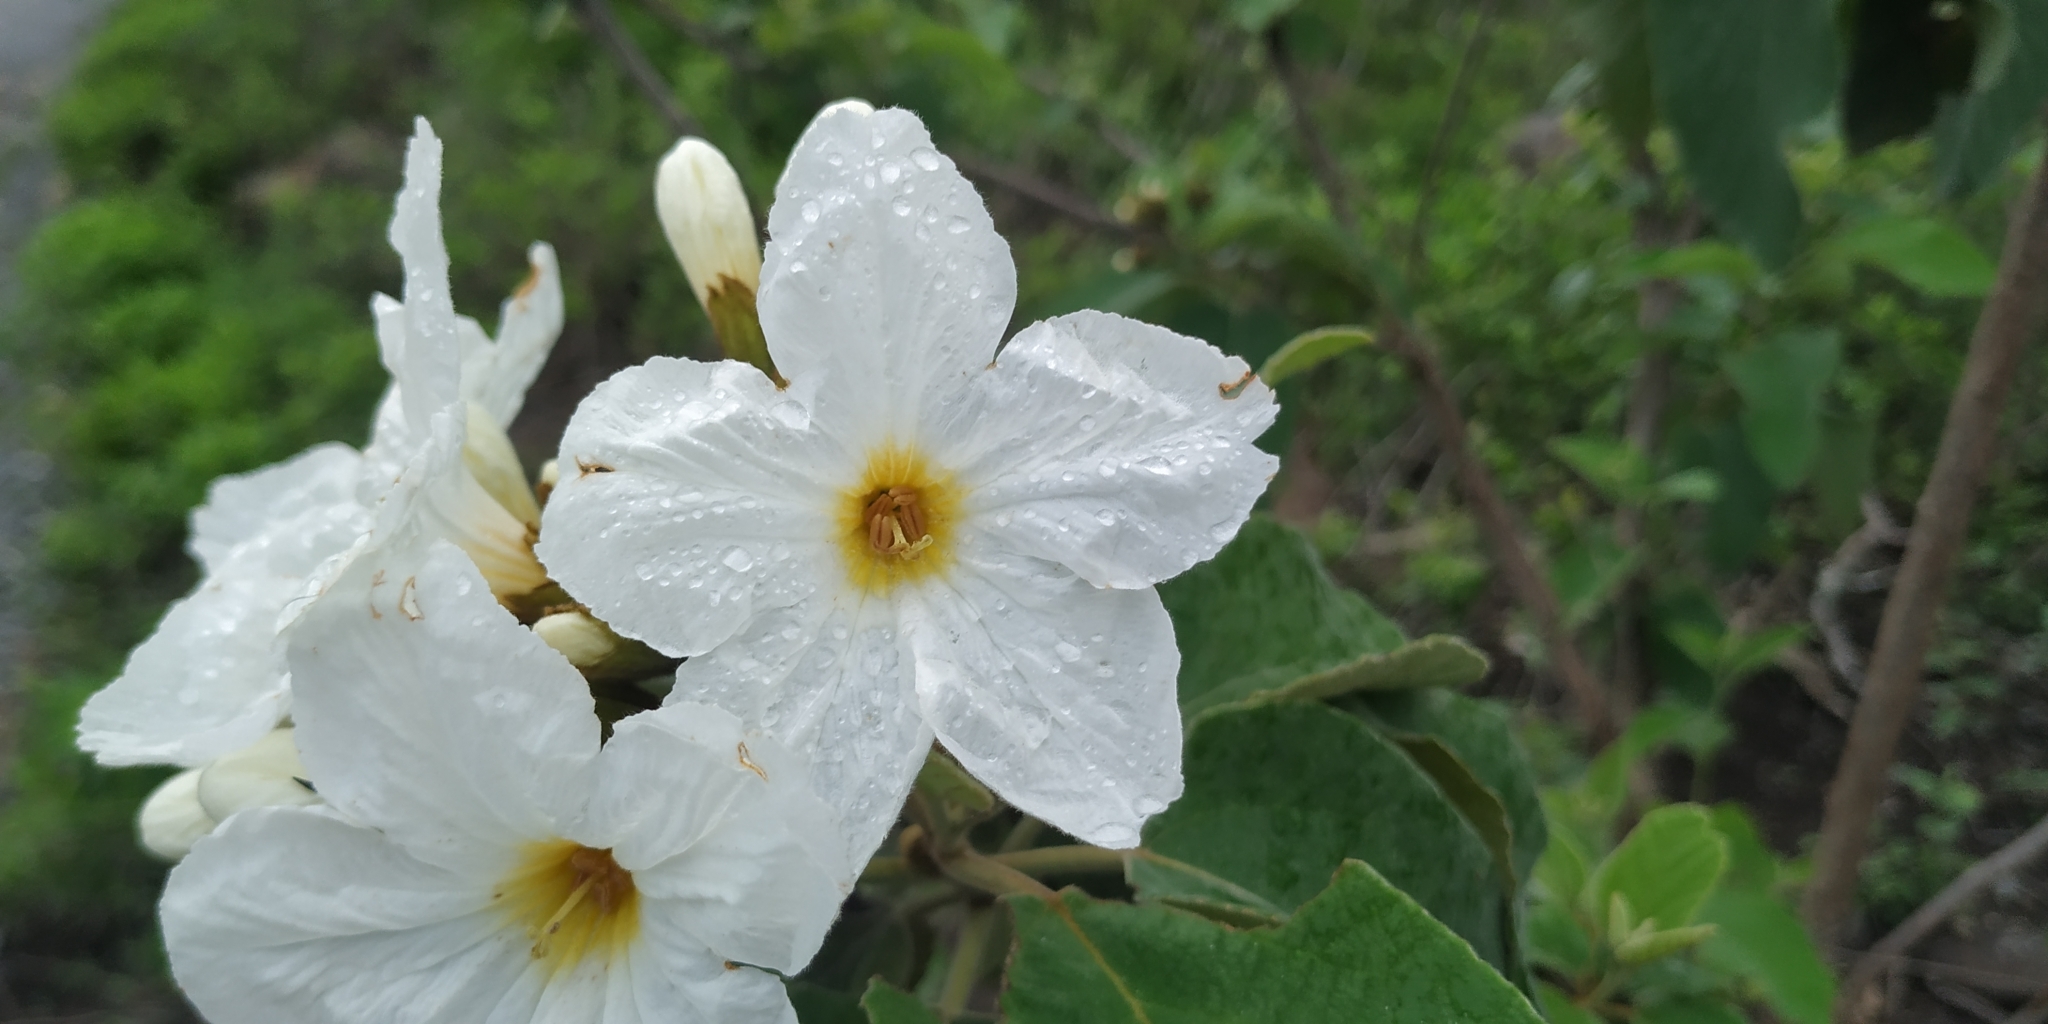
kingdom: Plantae
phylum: Tracheophyta
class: Magnoliopsida
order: Boraginales
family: Cordiaceae
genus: Cordia
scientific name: Cordia boissieri
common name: Mexican-olive
